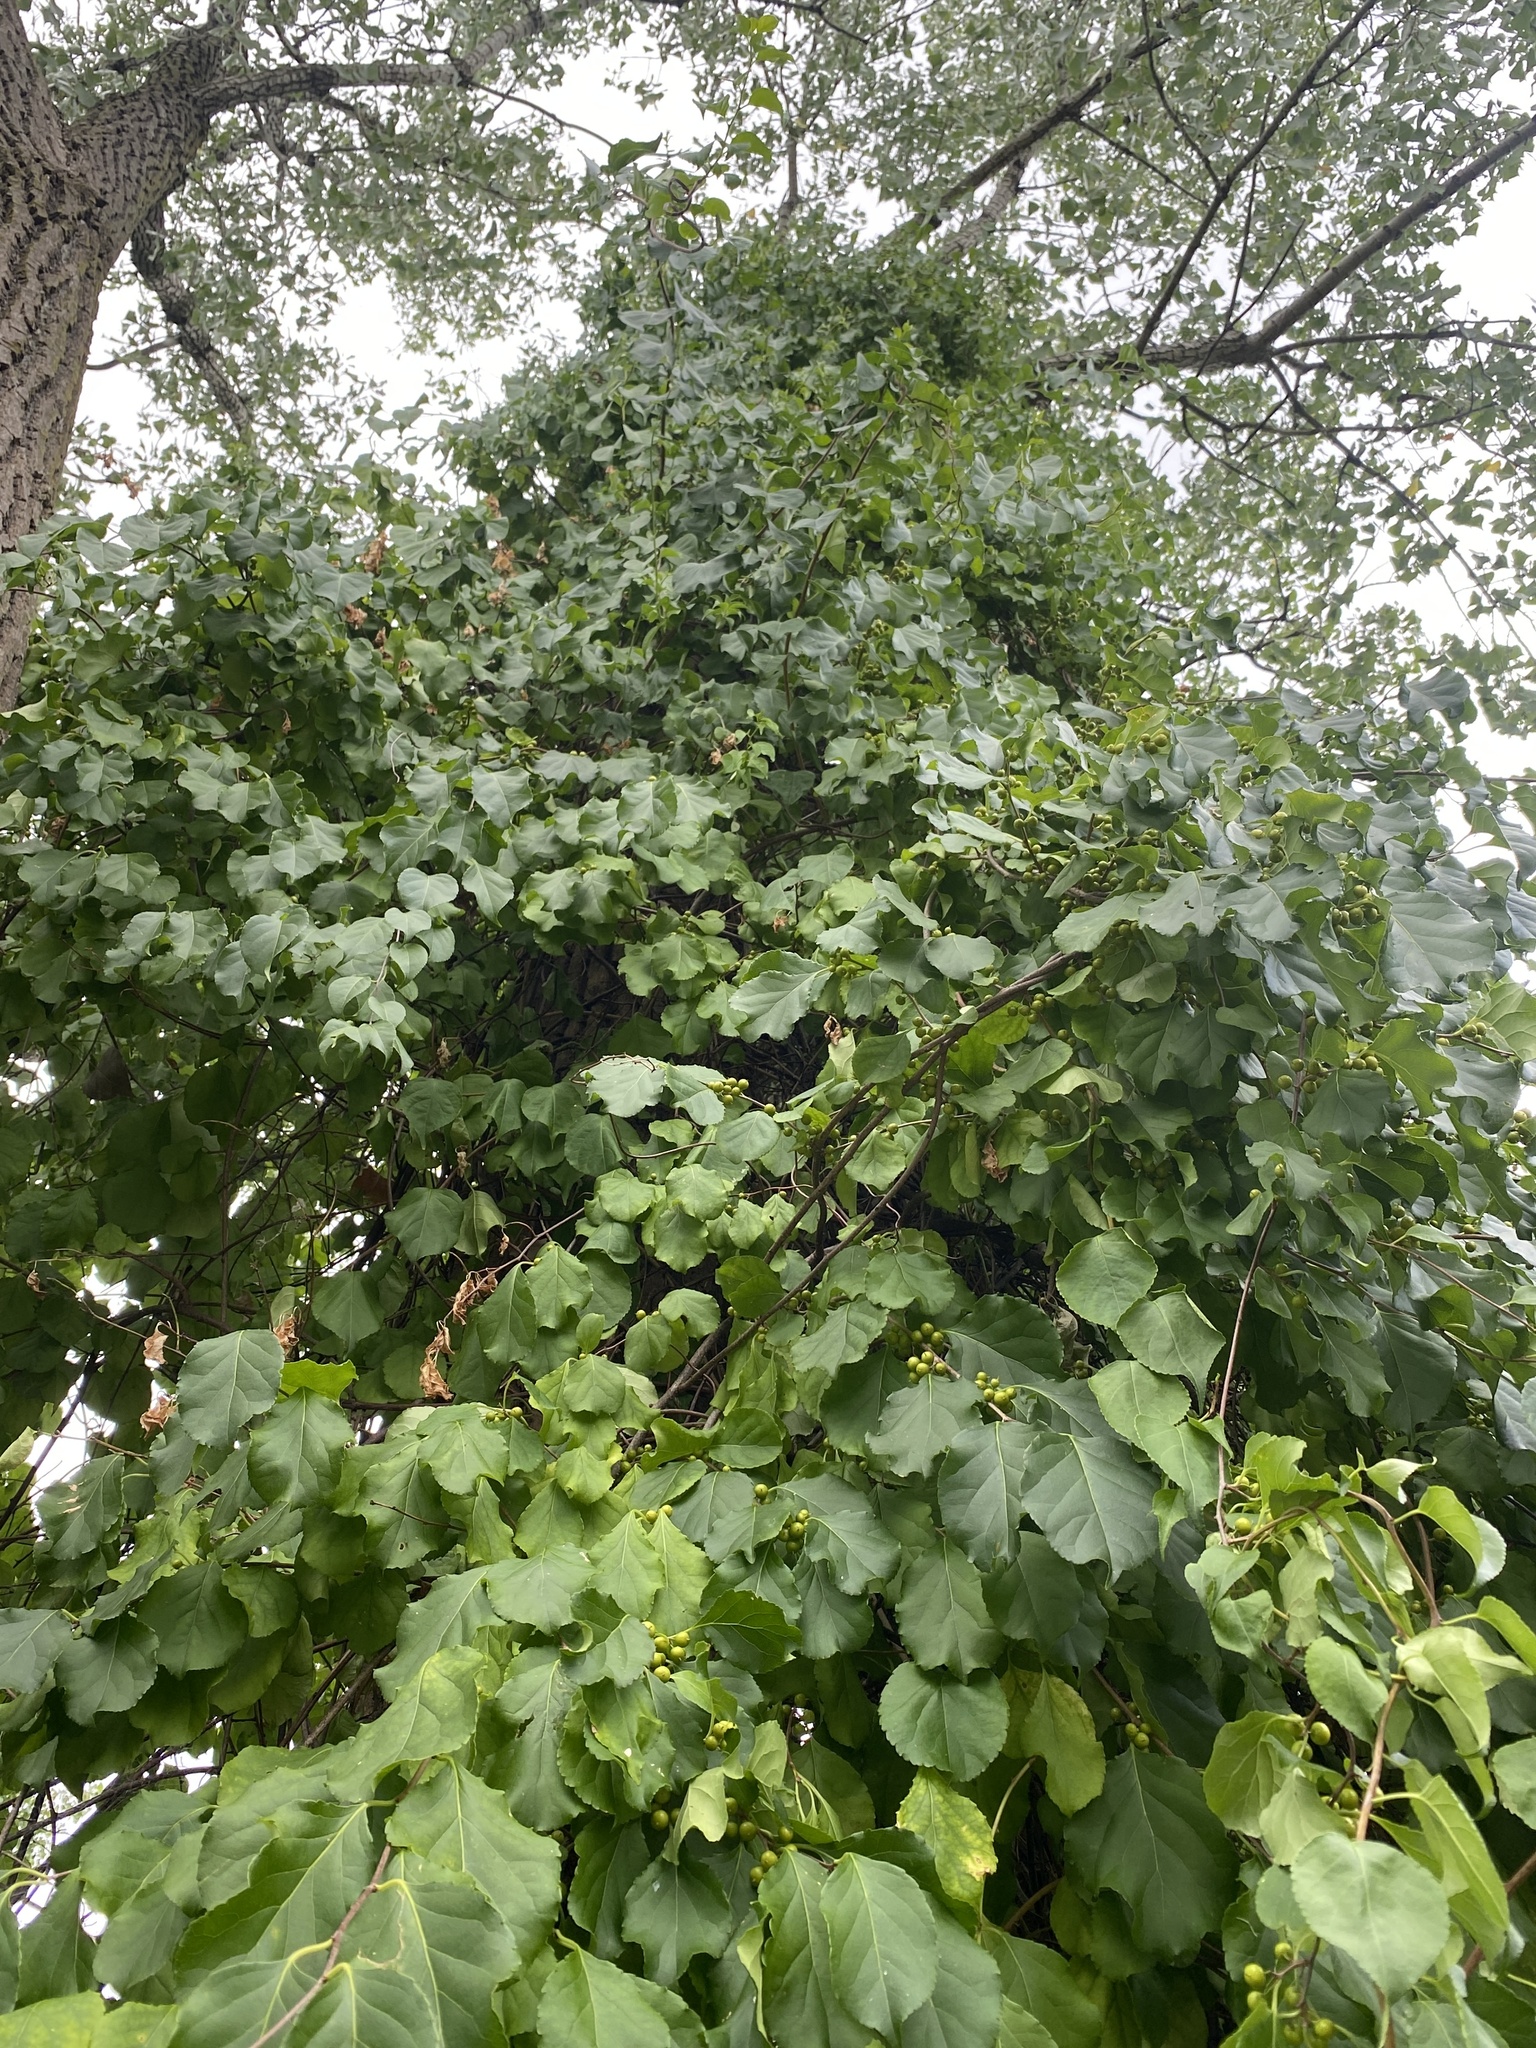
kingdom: Plantae
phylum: Tracheophyta
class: Magnoliopsida
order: Celastrales
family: Celastraceae
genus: Celastrus
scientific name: Celastrus orbiculatus
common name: Oriental bittersweet
